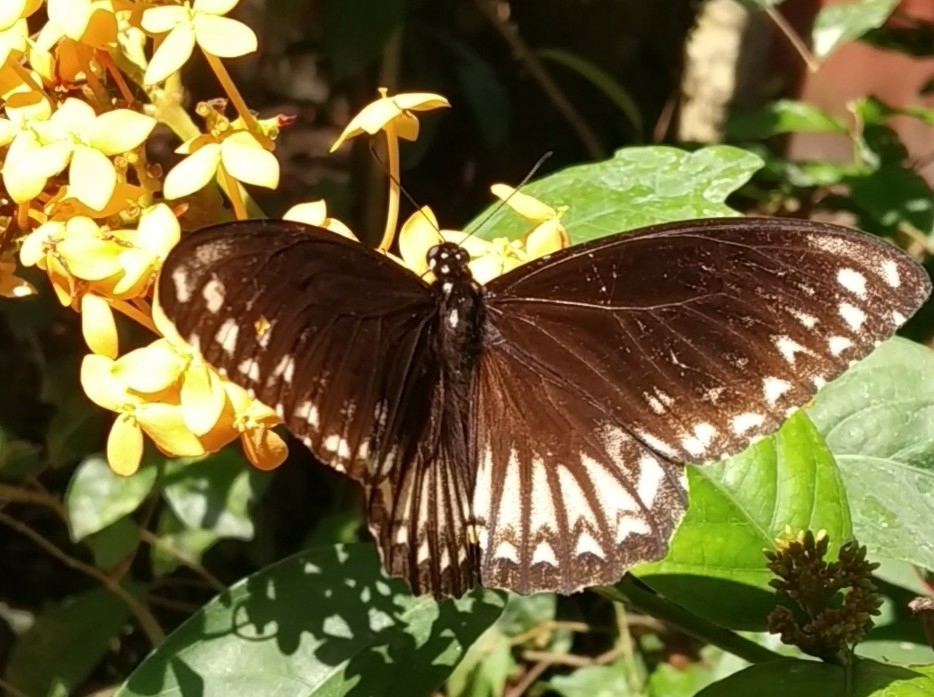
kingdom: Animalia
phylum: Arthropoda
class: Insecta
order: Lepidoptera
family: Papilionidae
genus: Chilasa
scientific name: Chilasa clytia
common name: Common mime
